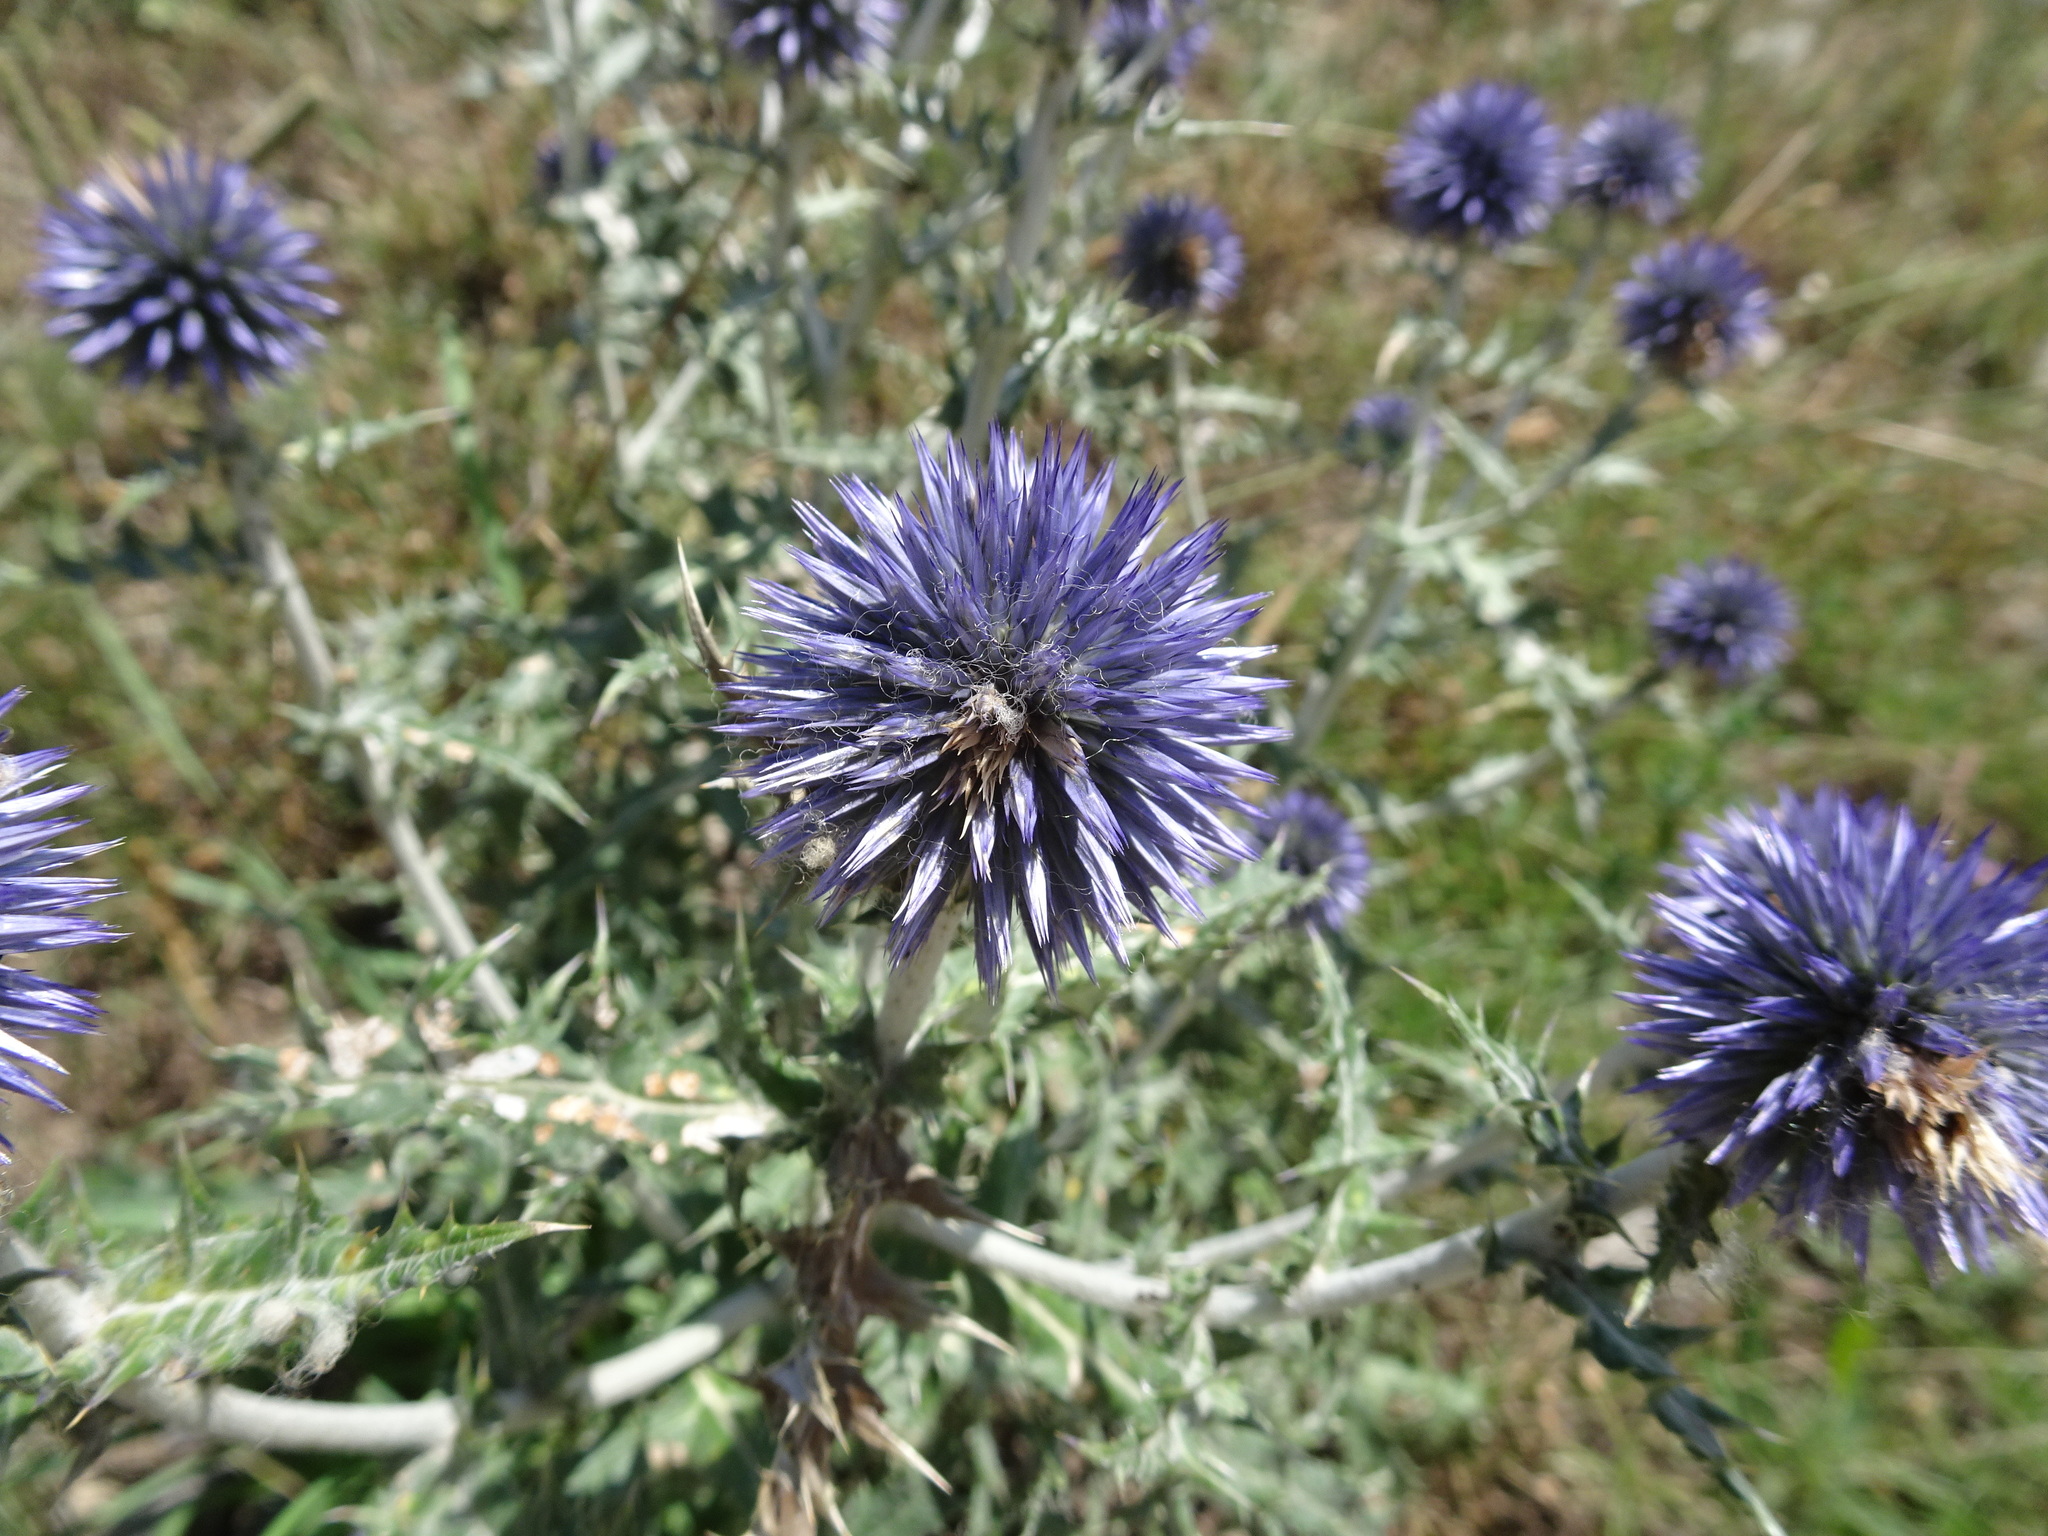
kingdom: Plantae
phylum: Tracheophyta
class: Magnoliopsida
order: Asterales
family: Asteraceae
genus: Echinops
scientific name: Echinops ritro
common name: Globe thistle
